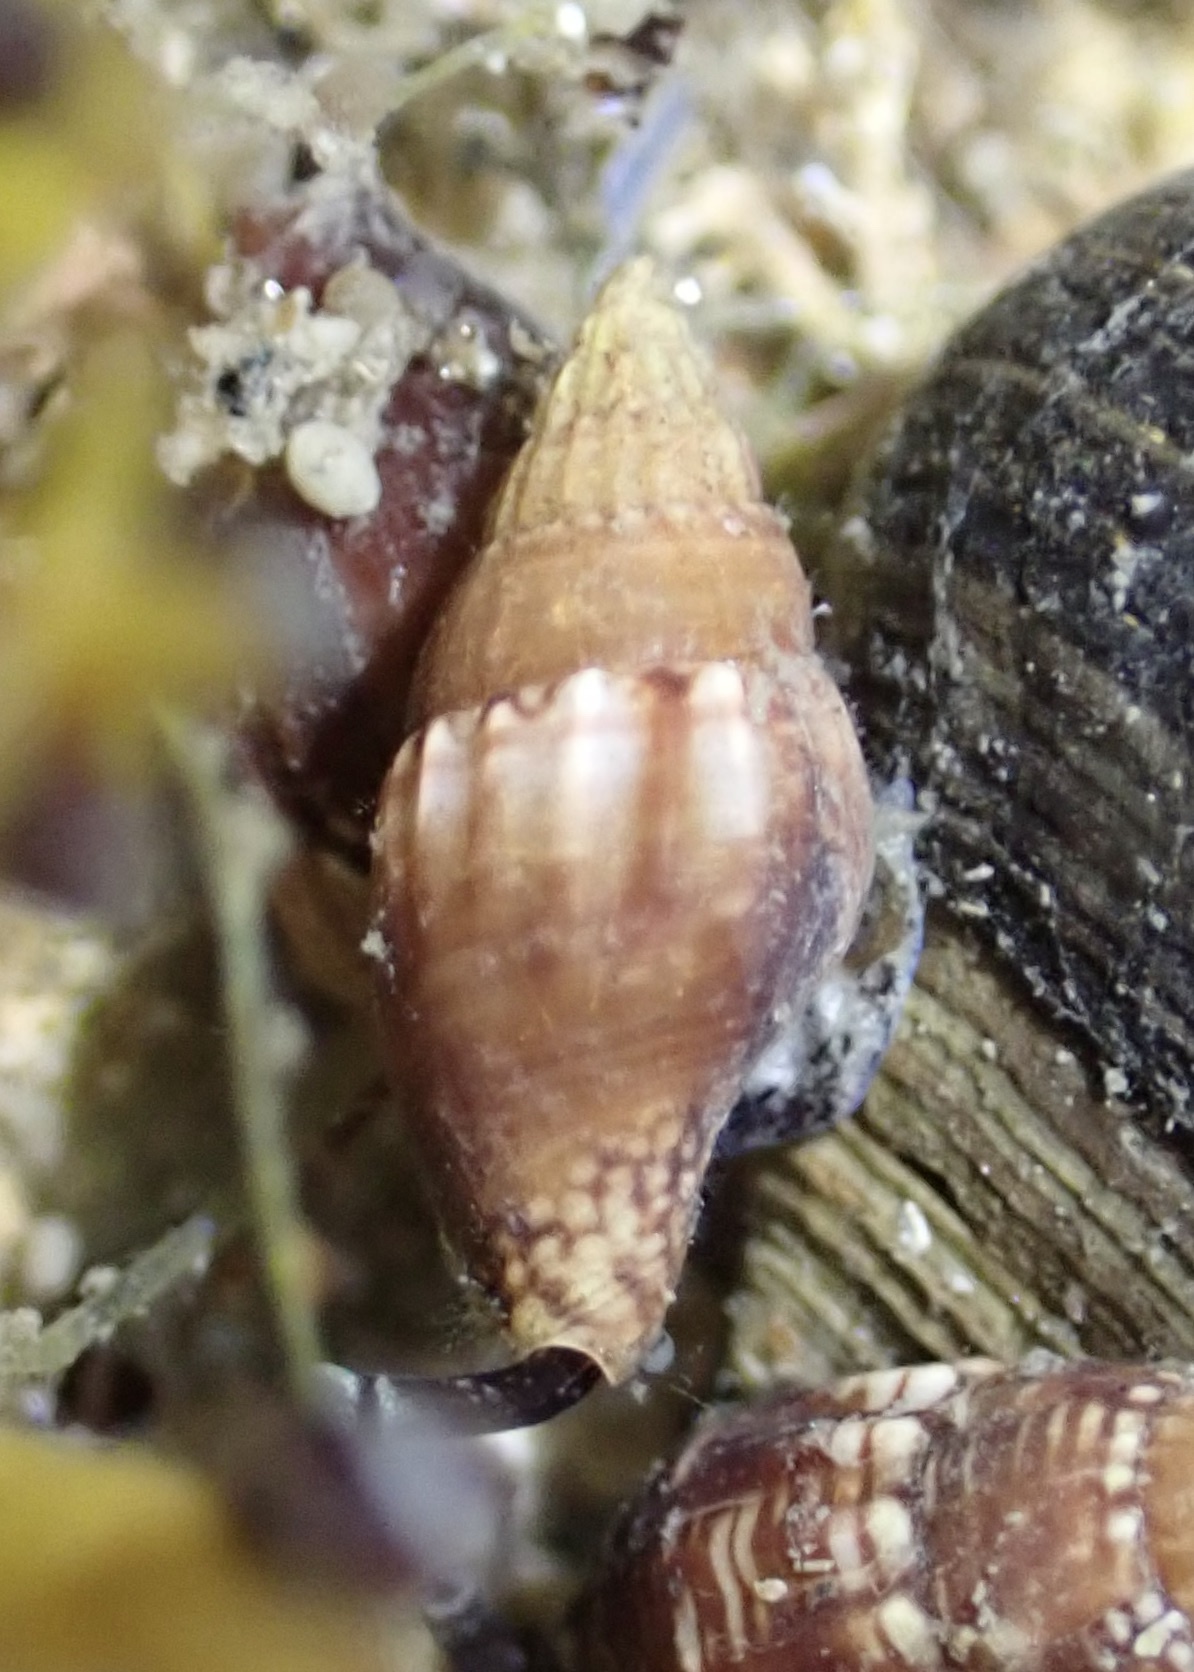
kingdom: Animalia
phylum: Mollusca
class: Gastropoda
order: Neogastropoda
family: Columbellidae
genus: Costoanachis
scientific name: Costoanachis translirata
